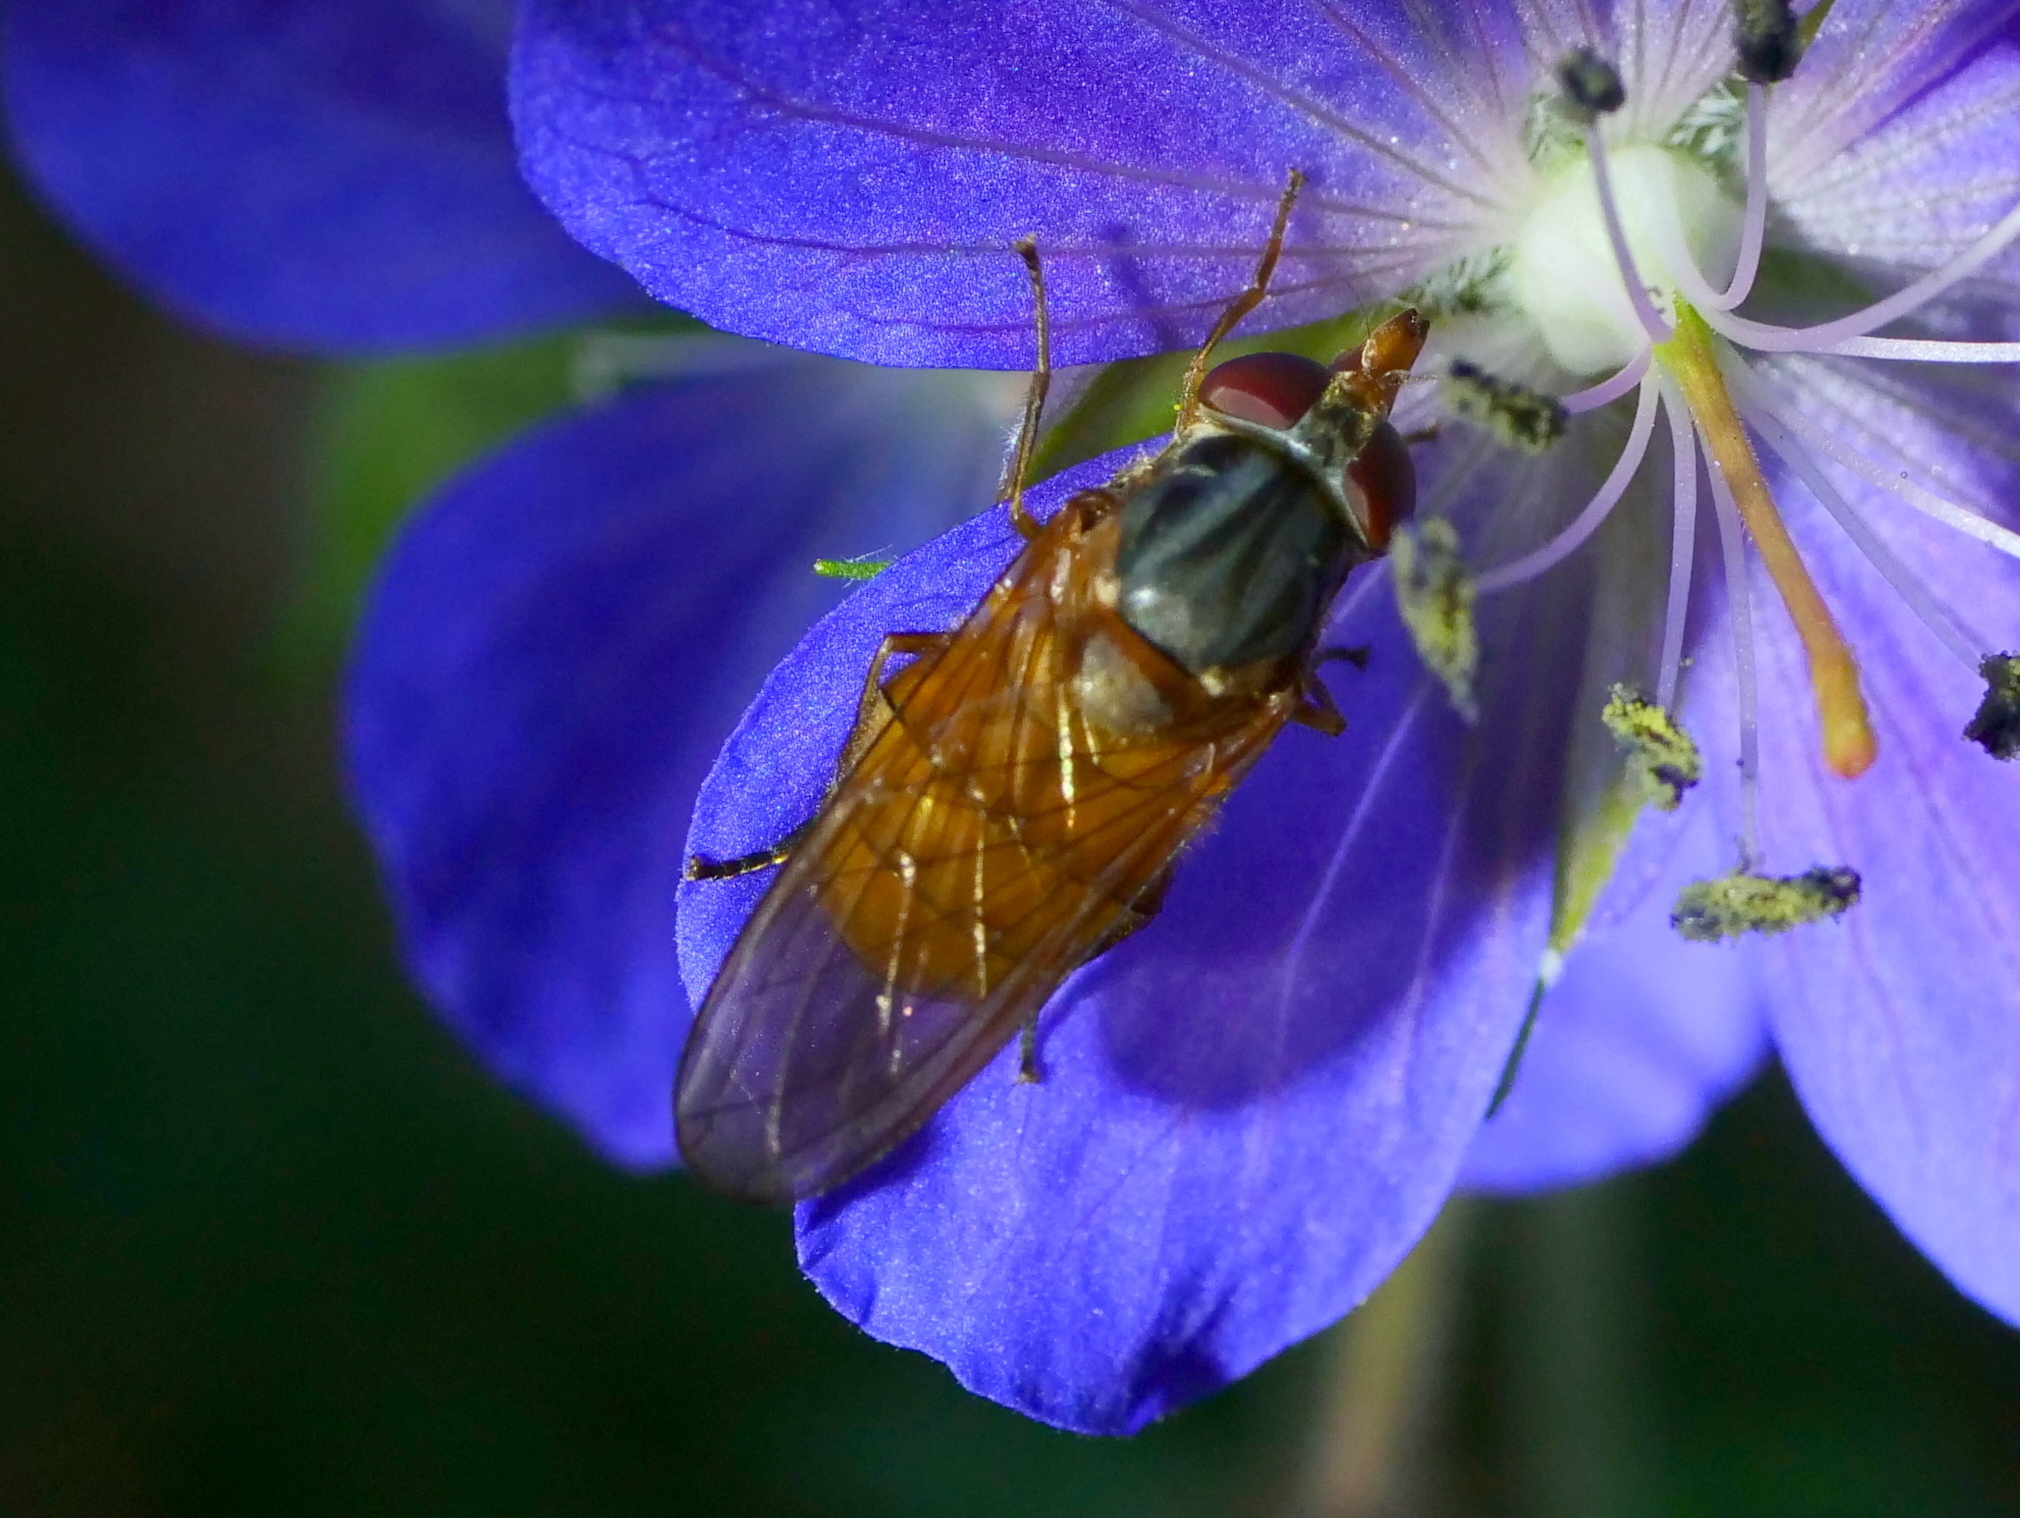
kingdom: Animalia
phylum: Arthropoda
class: Insecta
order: Diptera
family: Syrphidae
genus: Rhingia
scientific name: Rhingia rostrata
